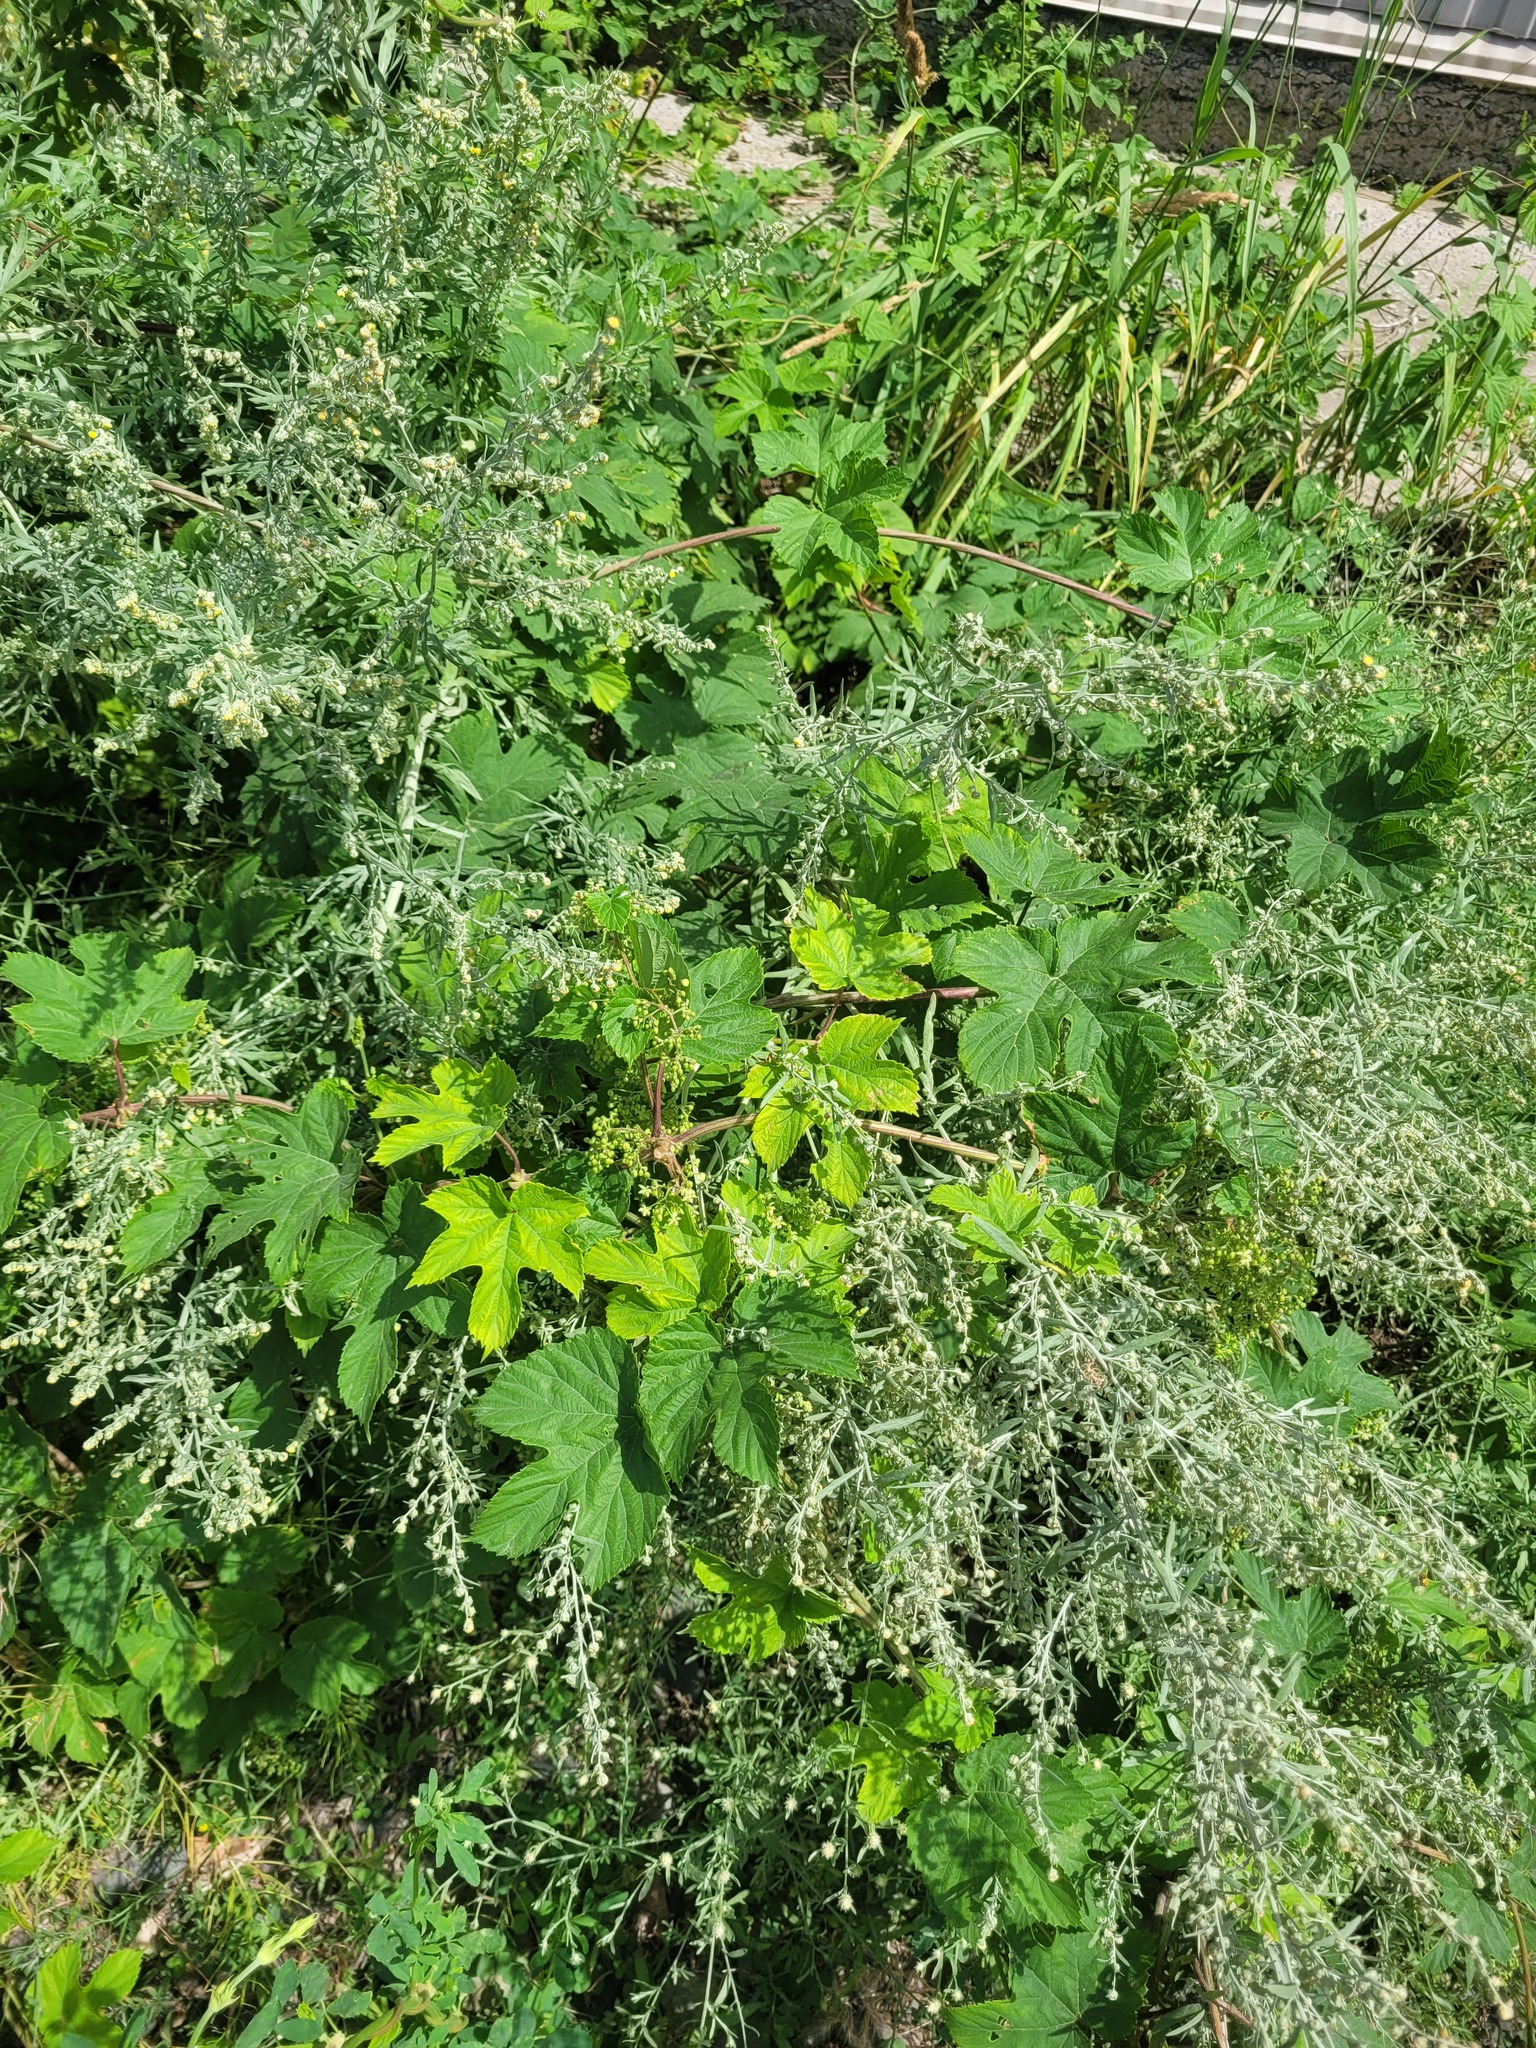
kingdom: Plantae
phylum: Tracheophyta
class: Magnoliopsida
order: Rosales
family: Cannabaceae
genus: Humulus
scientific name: Humulus lupulus
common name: Hop
